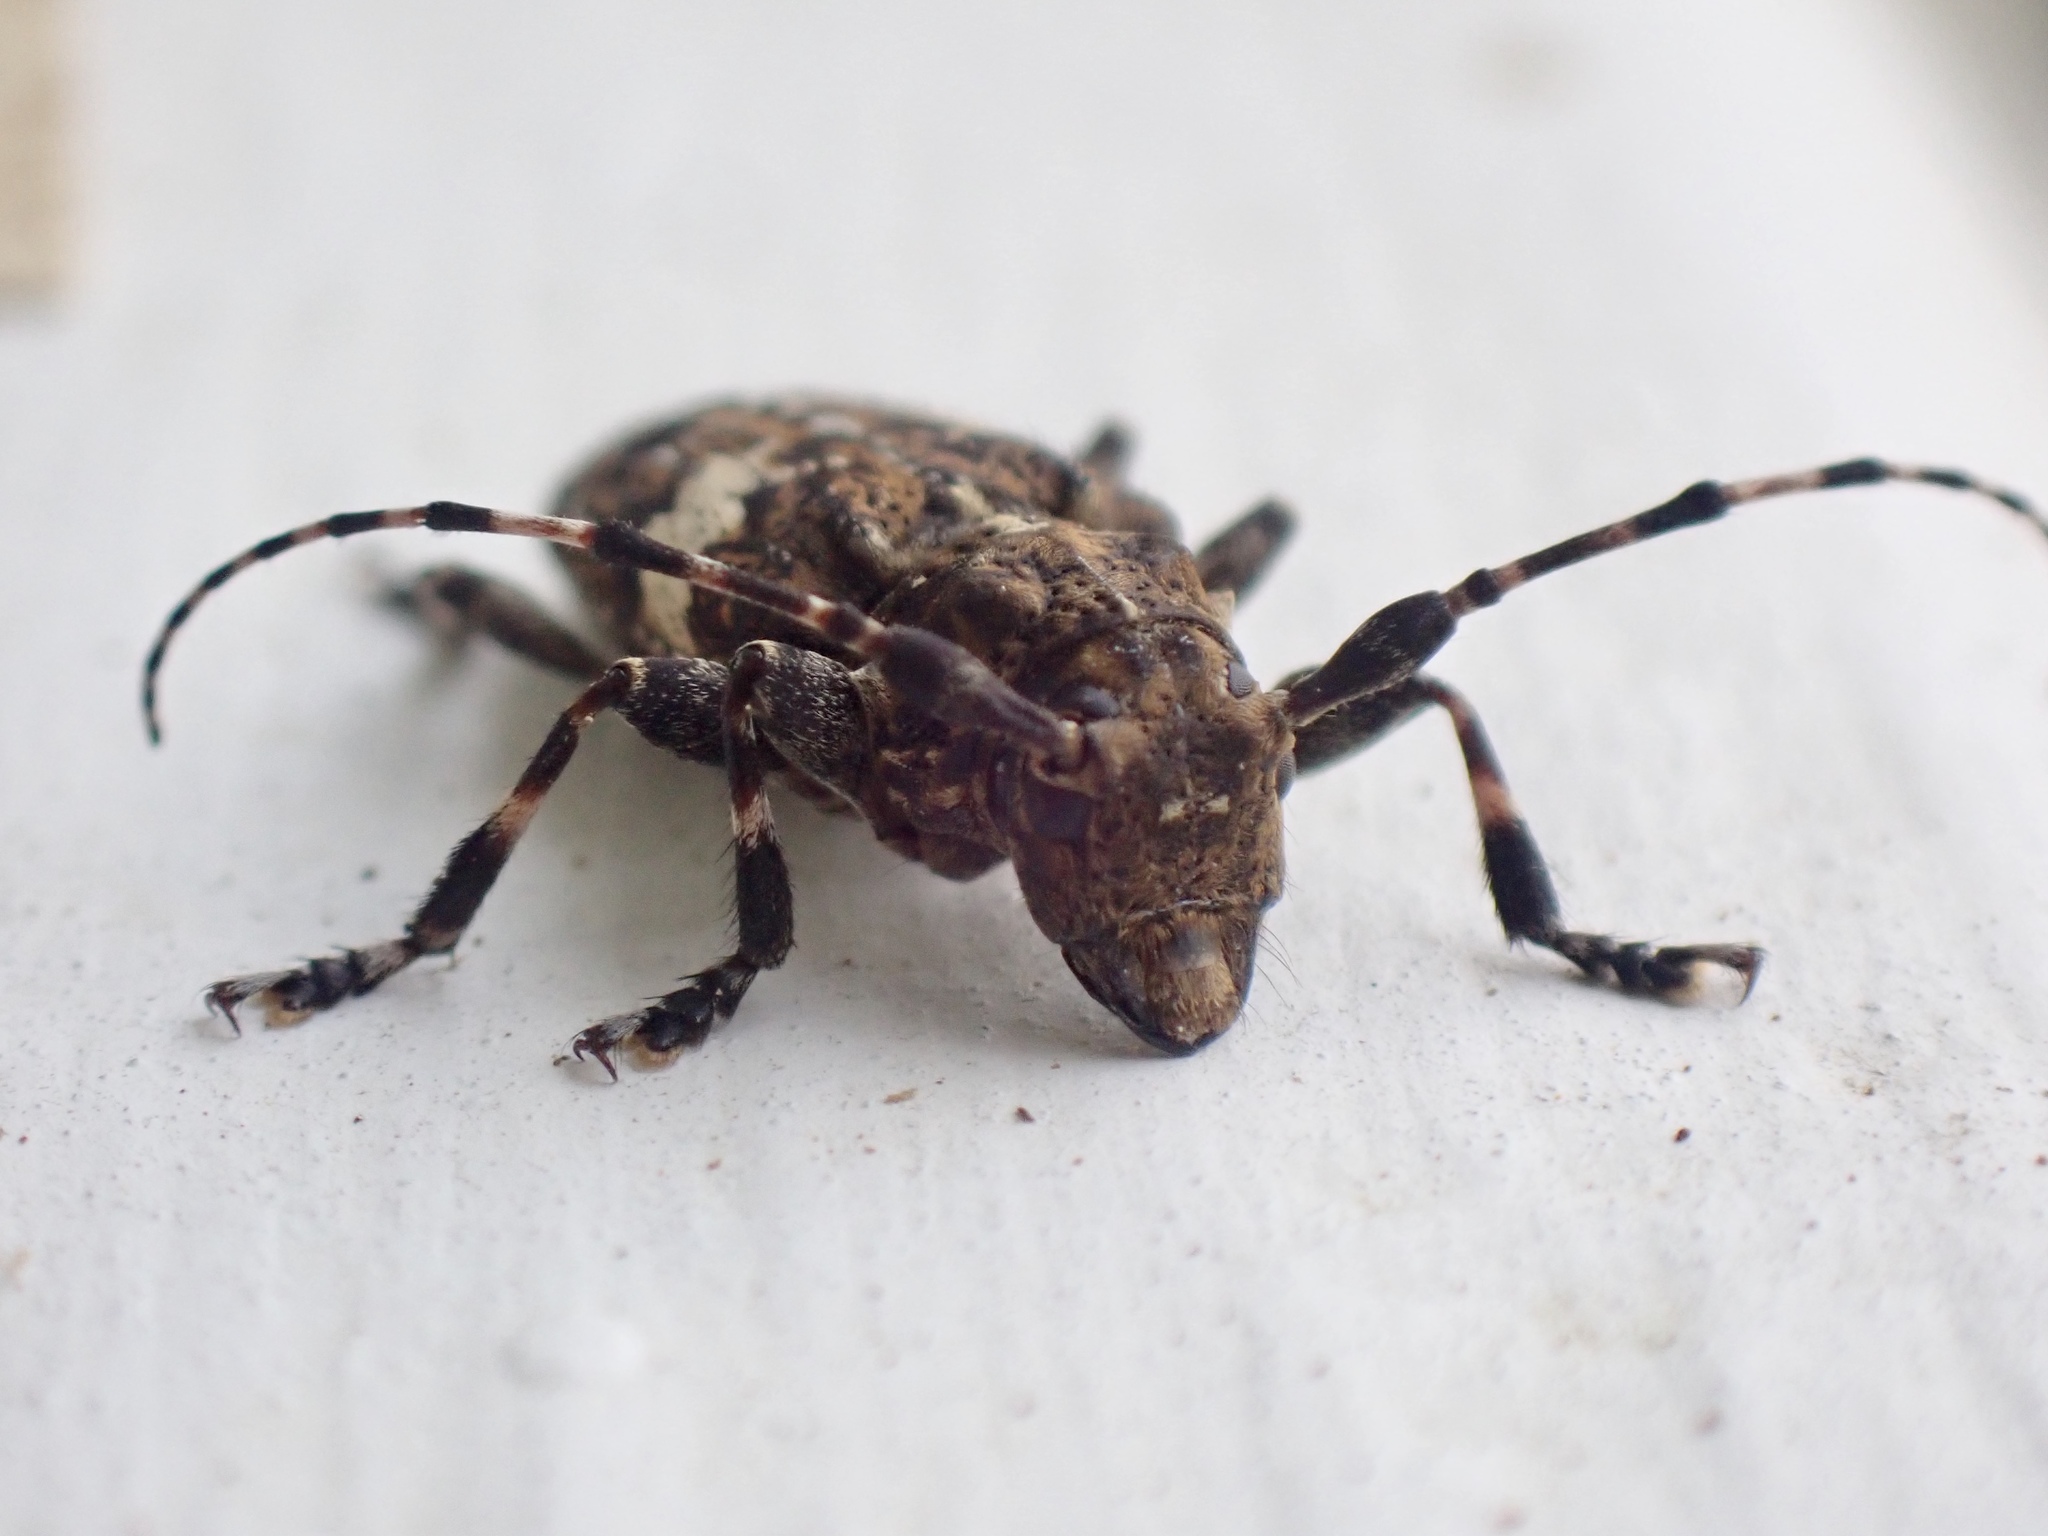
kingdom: Animalia
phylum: Arthropoda
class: Insecta
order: Coleoptera
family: Cerambycidae
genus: Acanthoderes
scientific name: Acanthoderes quadrigibba
